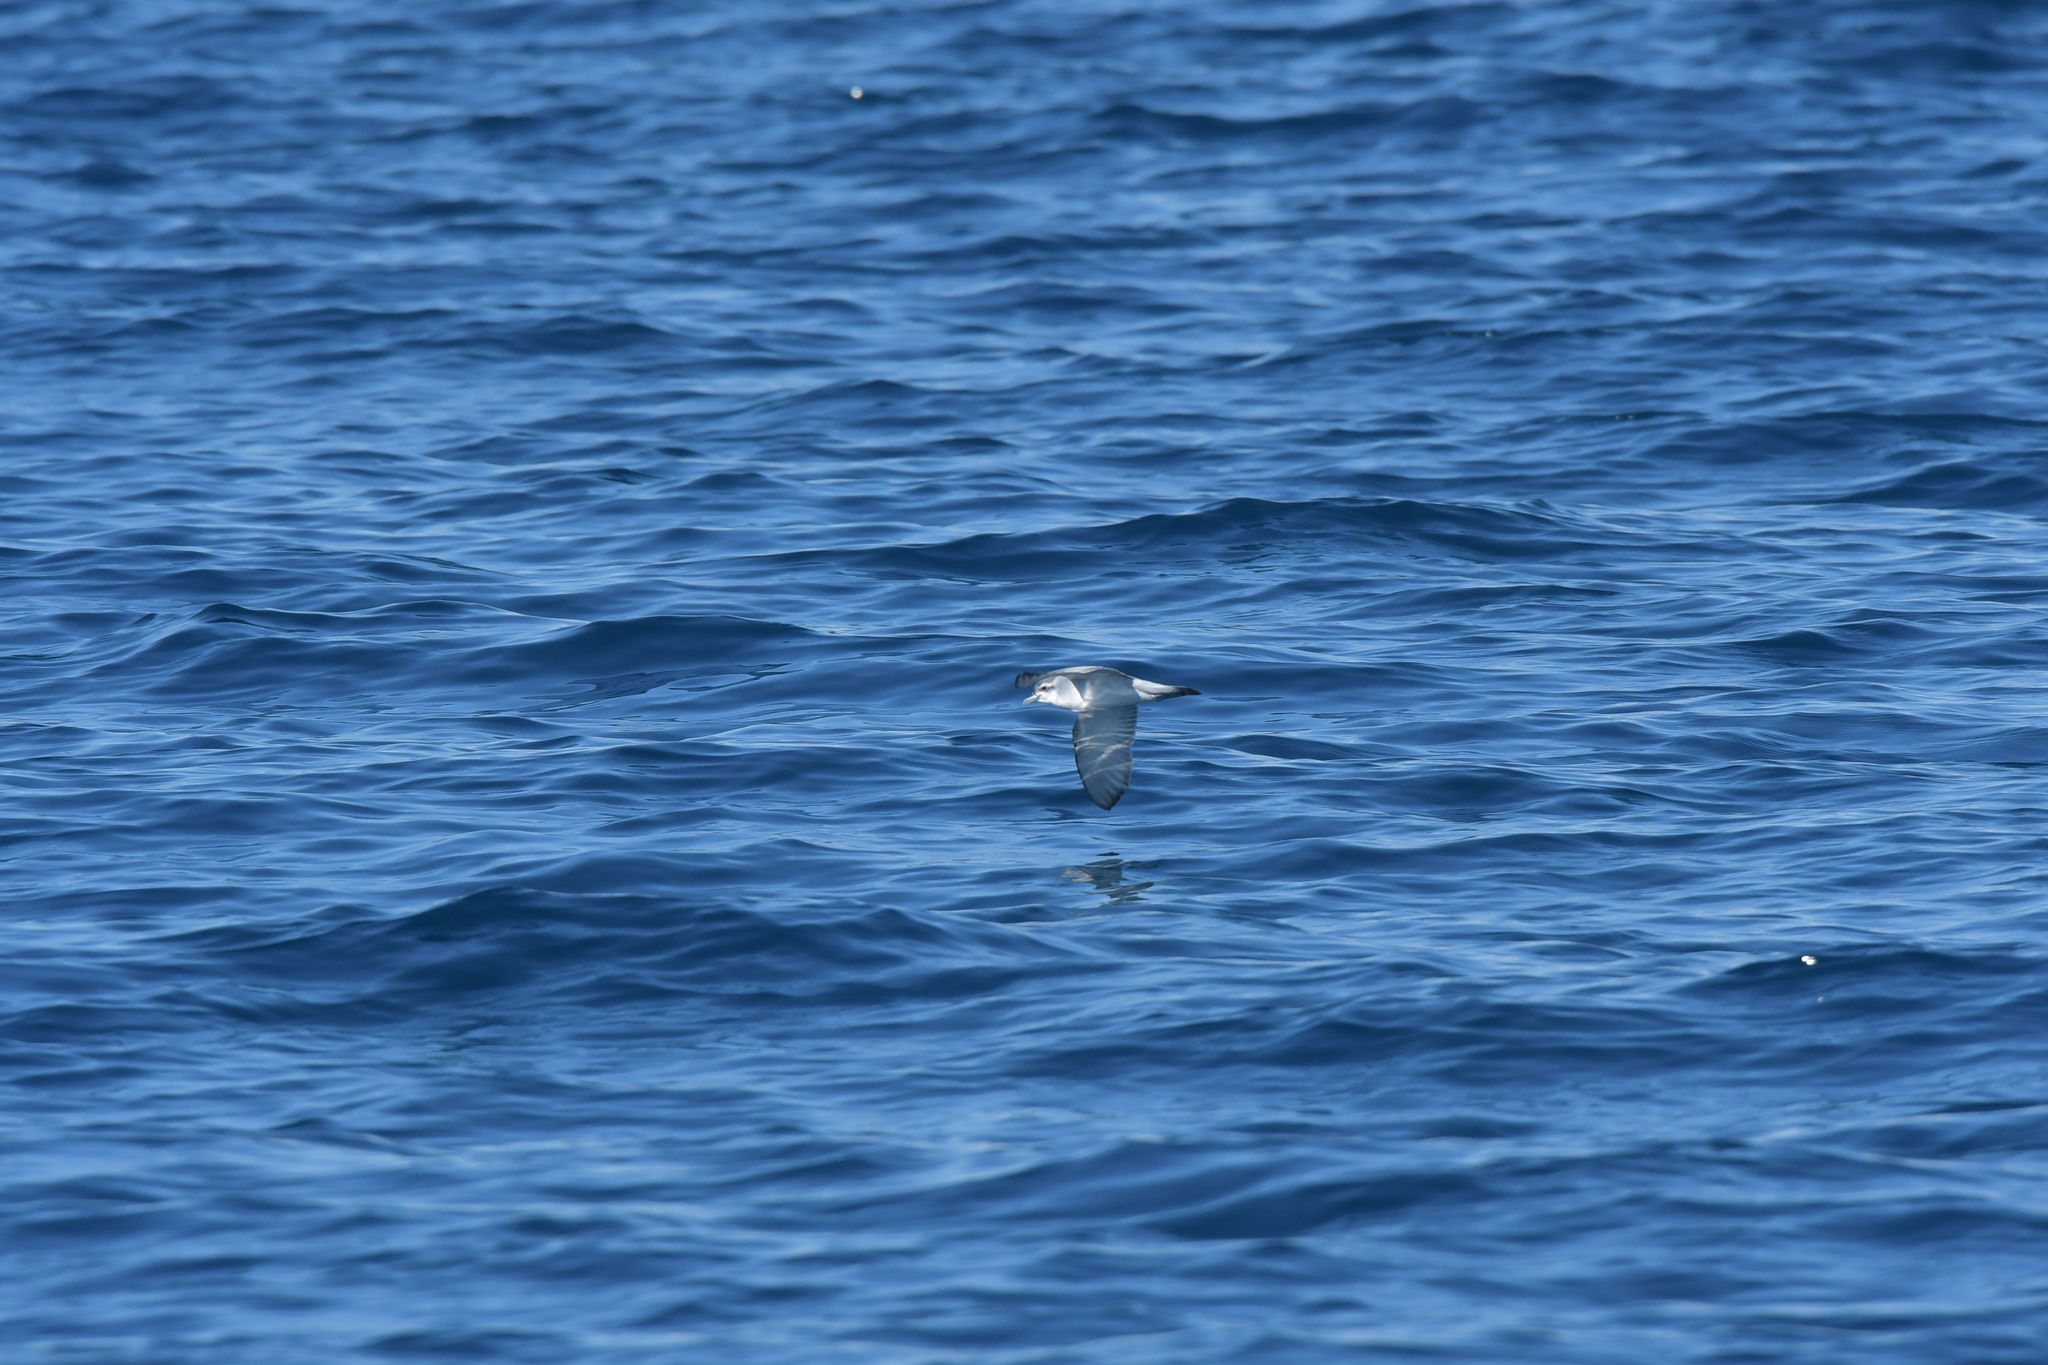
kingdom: Animalia
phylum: Chordata
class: Aves
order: Procellariiformes
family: Procellariidae
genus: Pachyptila
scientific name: Pachyptila turtur
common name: Fairy prion
